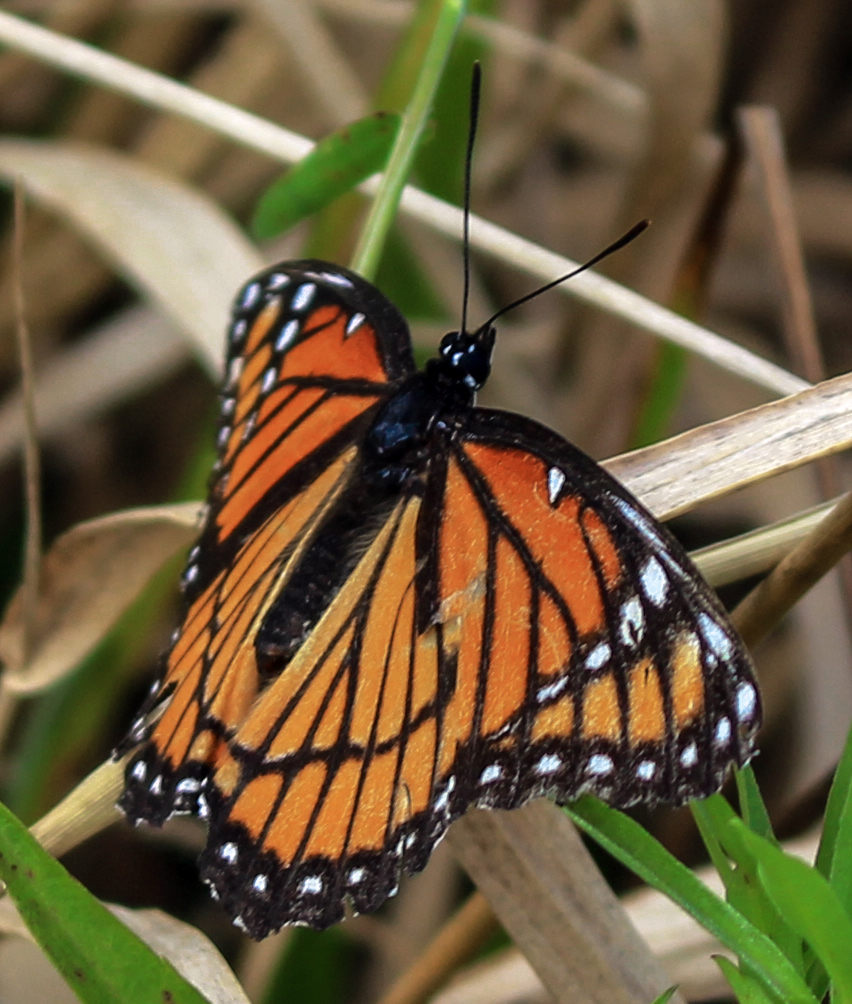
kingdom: Animalia
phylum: Arthropoda
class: Insecta
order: Lepidoptera
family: Nymphalidae
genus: Limenitis
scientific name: Limenitis archippus
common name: Viceroy
